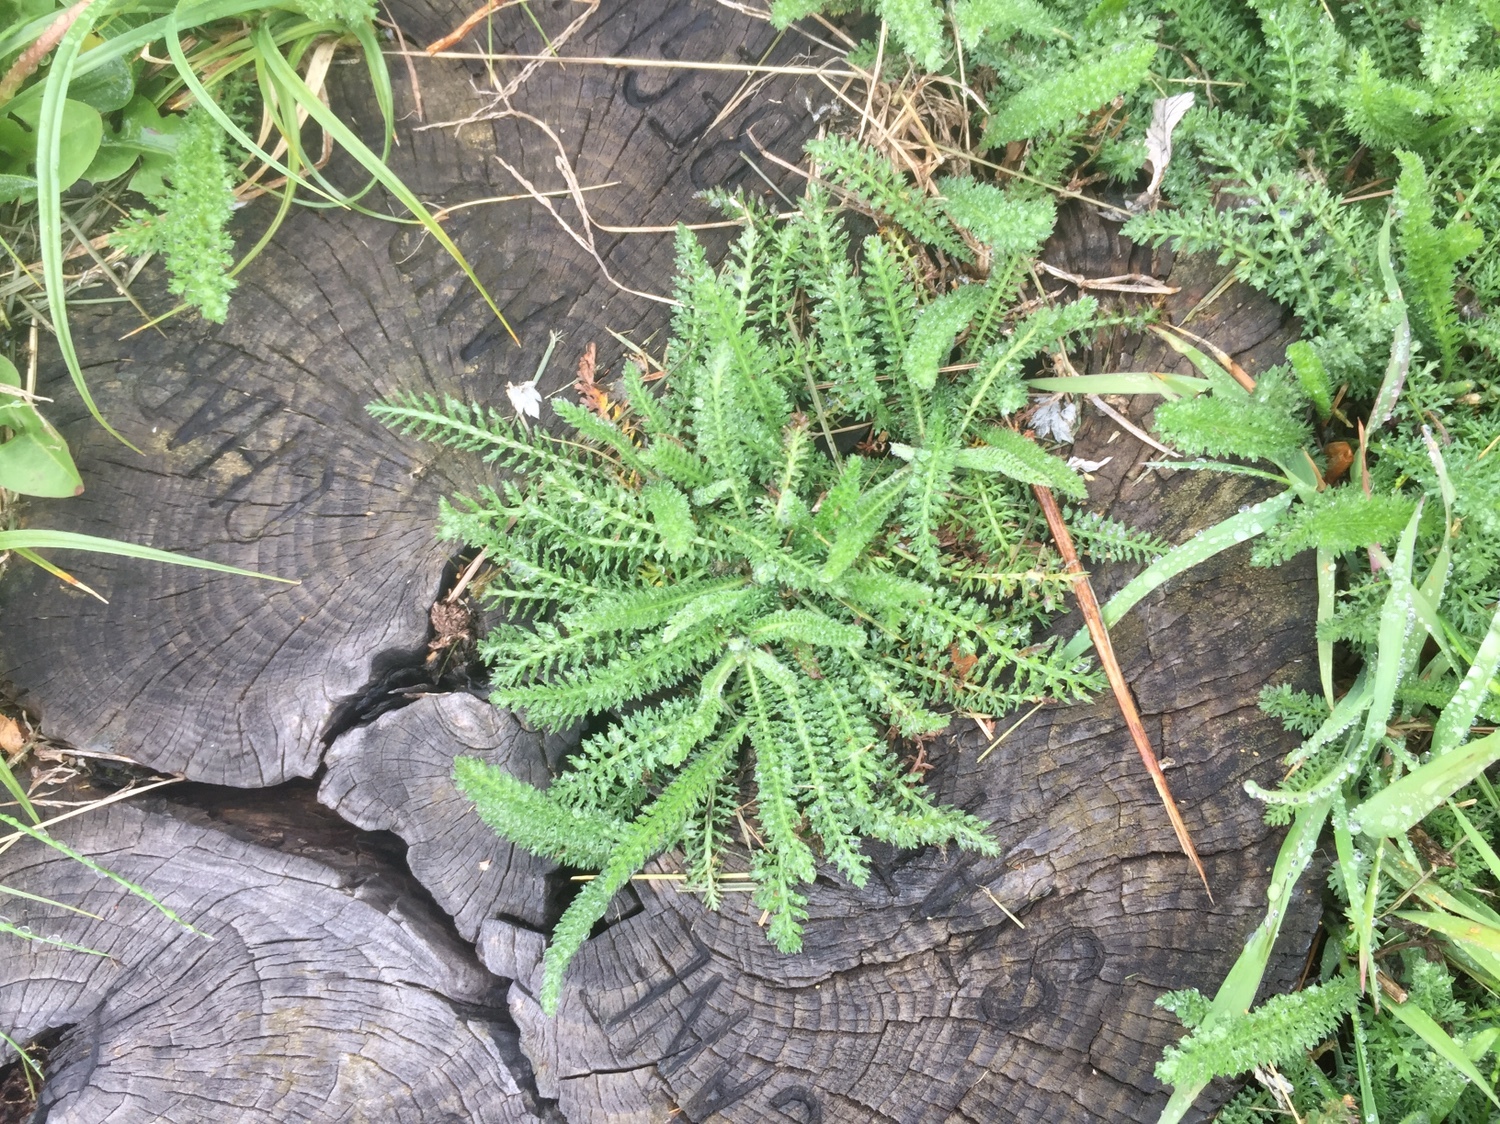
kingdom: Plantae
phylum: Tracheophyta
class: Magnoliopsida
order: Asterales
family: Asteraceae
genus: Achillea
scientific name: Achillea millefolium
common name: Yarrow
